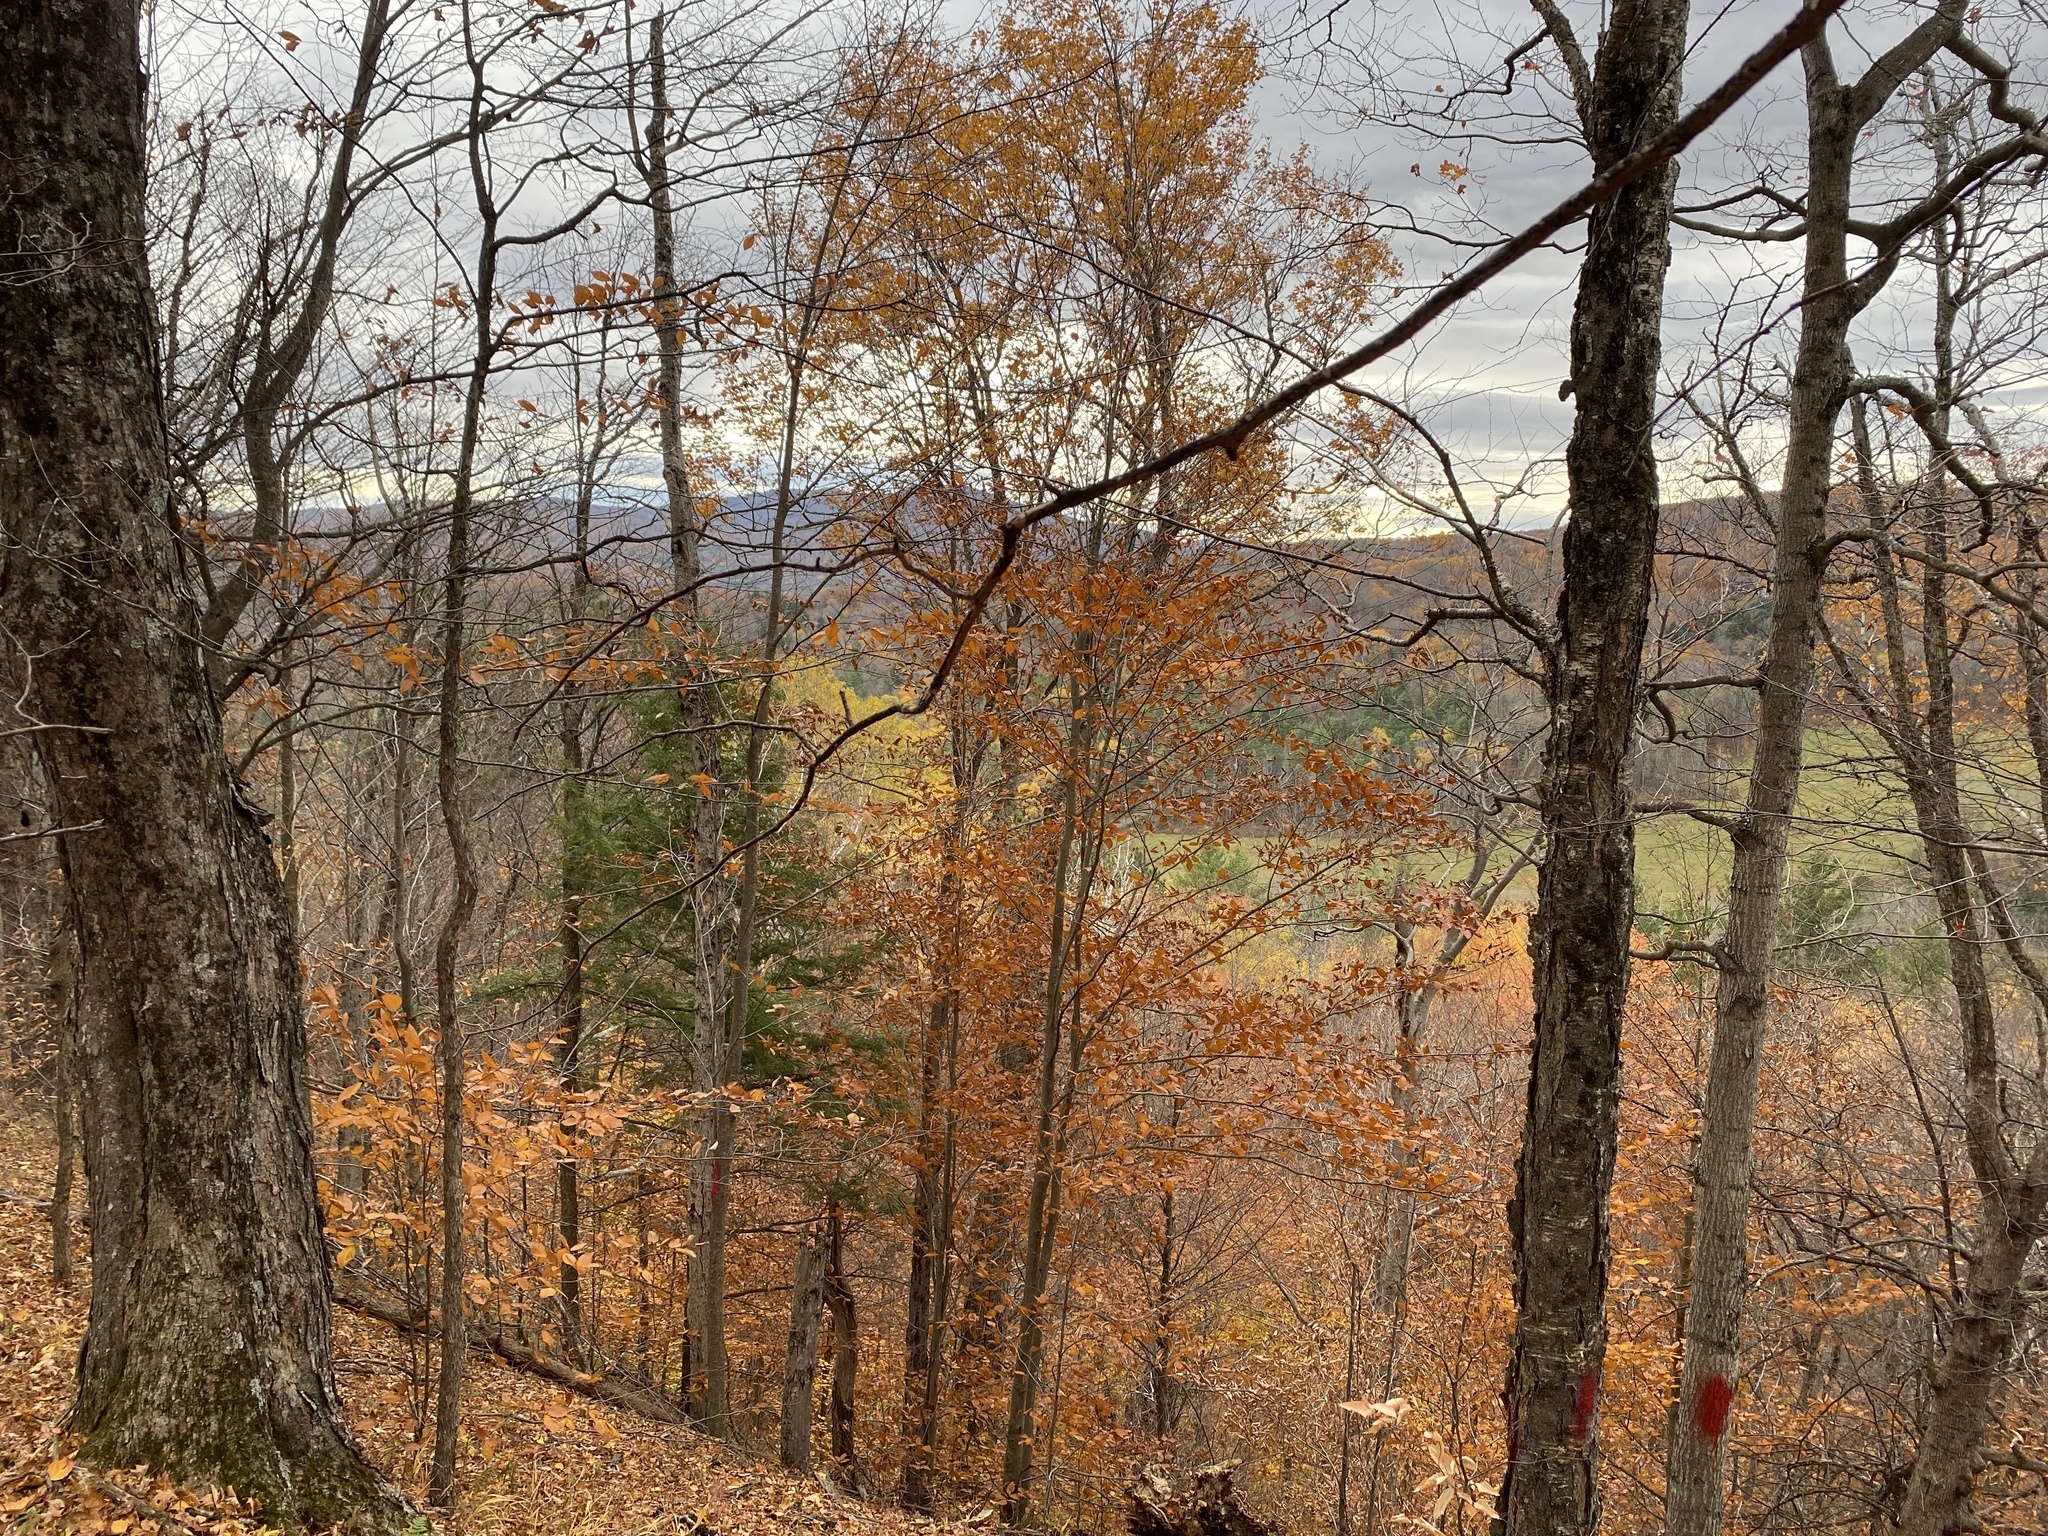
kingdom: Plantae
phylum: Tracheophyta
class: Magnoliopsida
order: Sapindales
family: Sapindaceae
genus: Acer
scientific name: Acer saccharum
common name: Sugar maple
